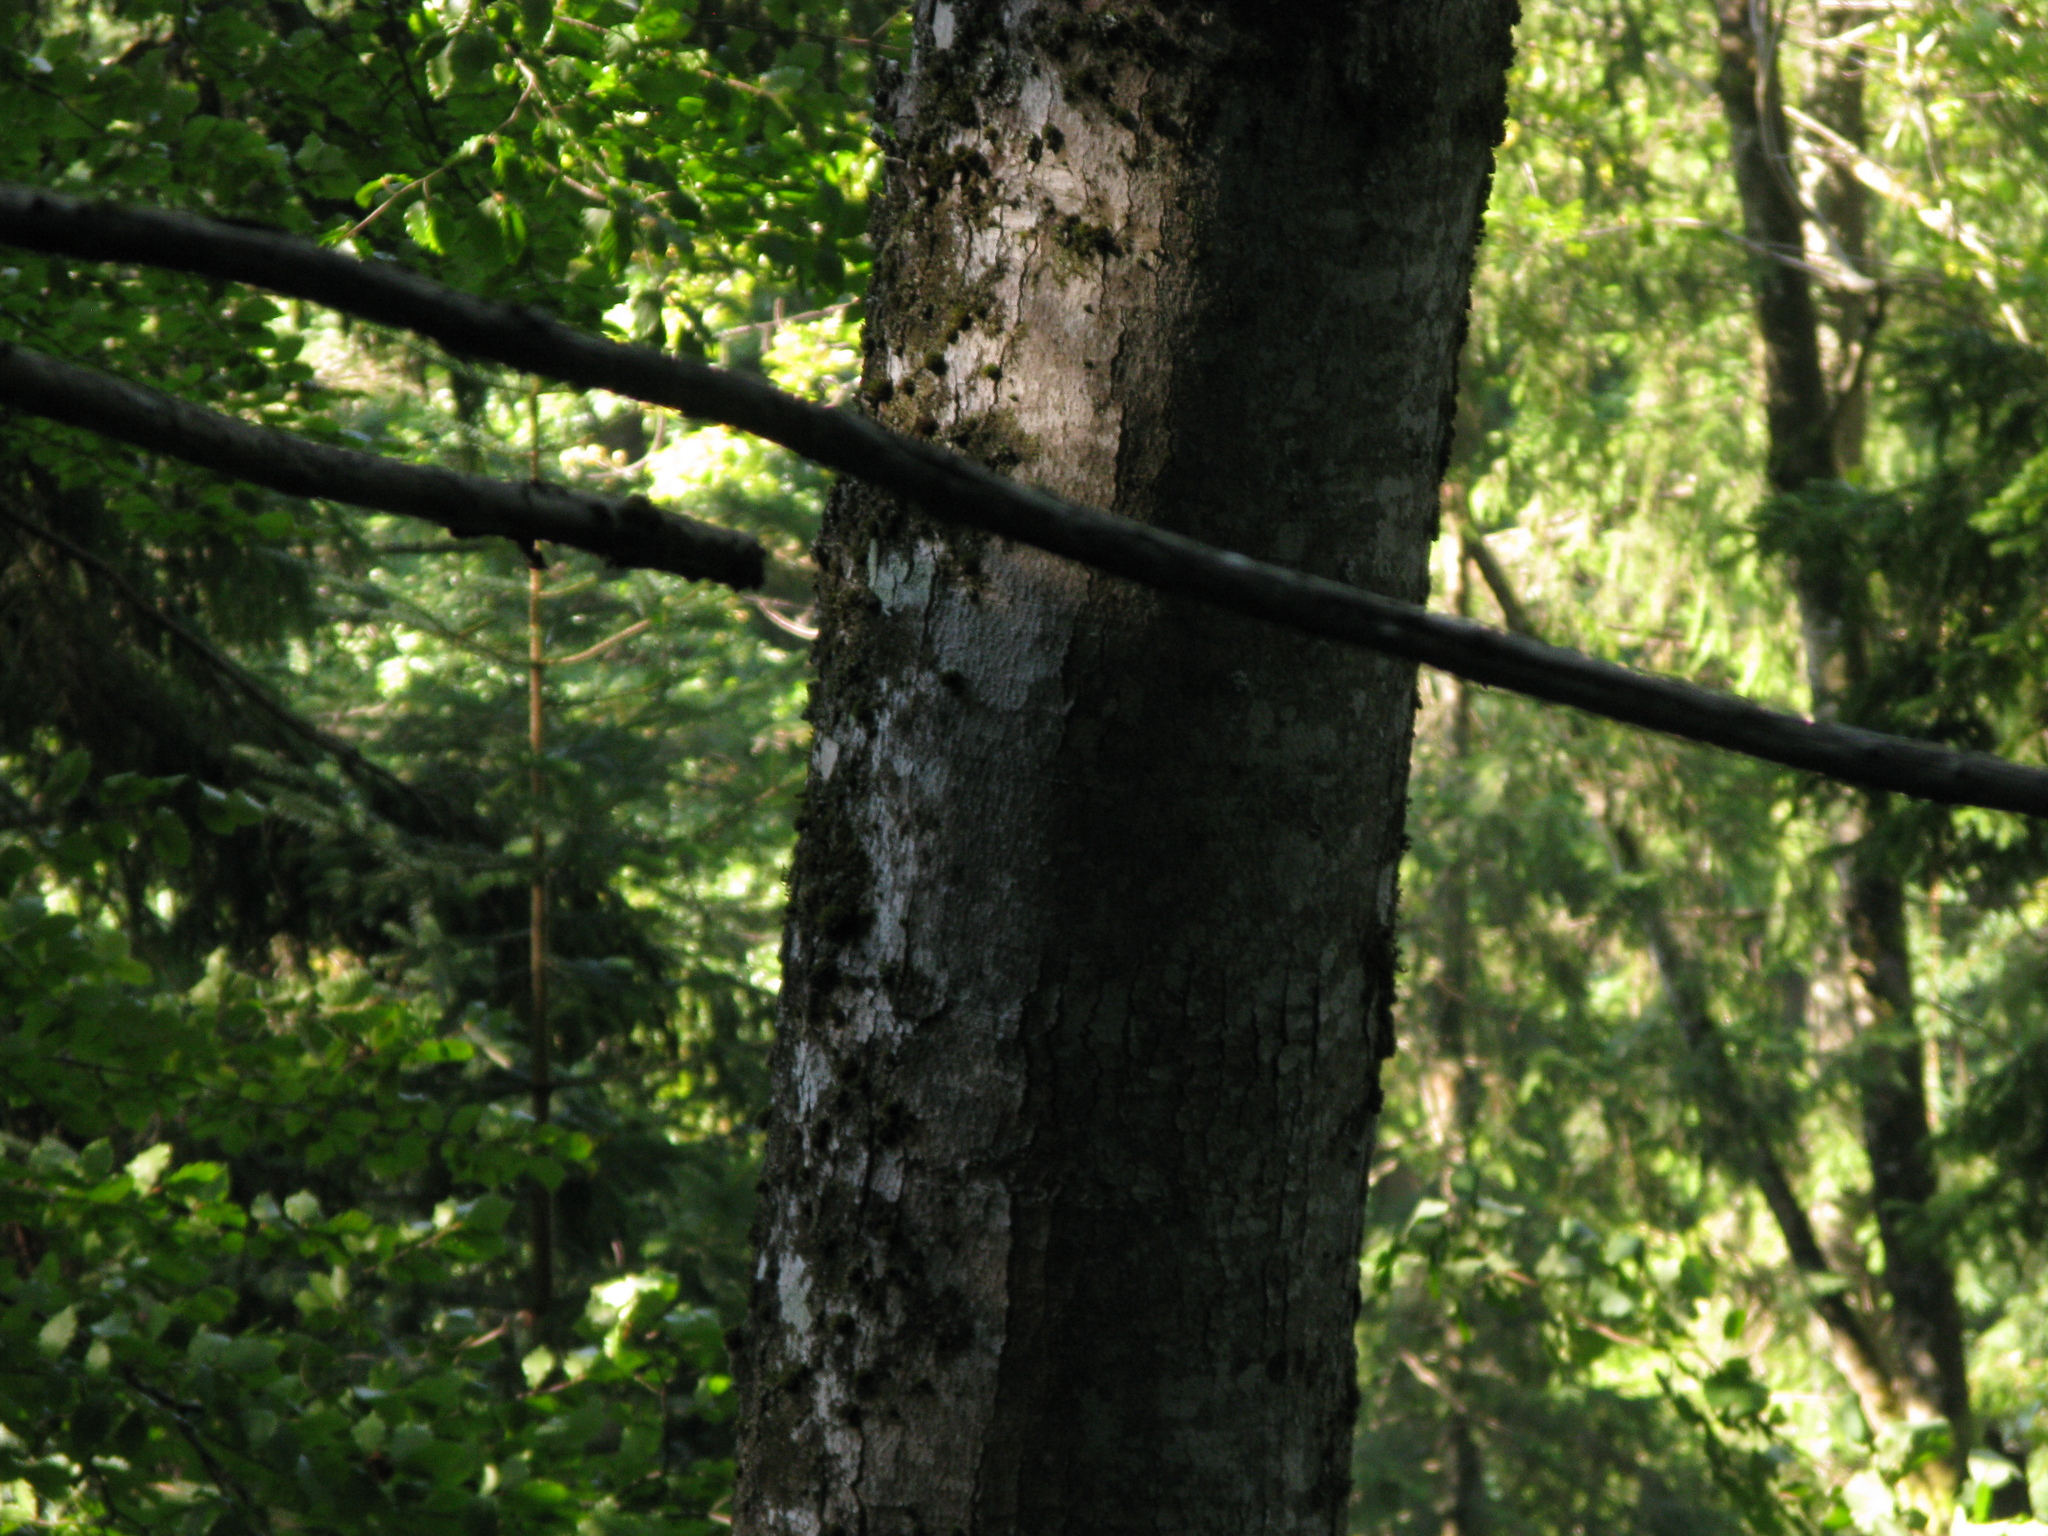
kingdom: Plantae
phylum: Tracheophyta
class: Magnoliopsida
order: Sapindales
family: Sapindaceae
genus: Acer
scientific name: Acer pseudoplatanus
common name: Sycamore
